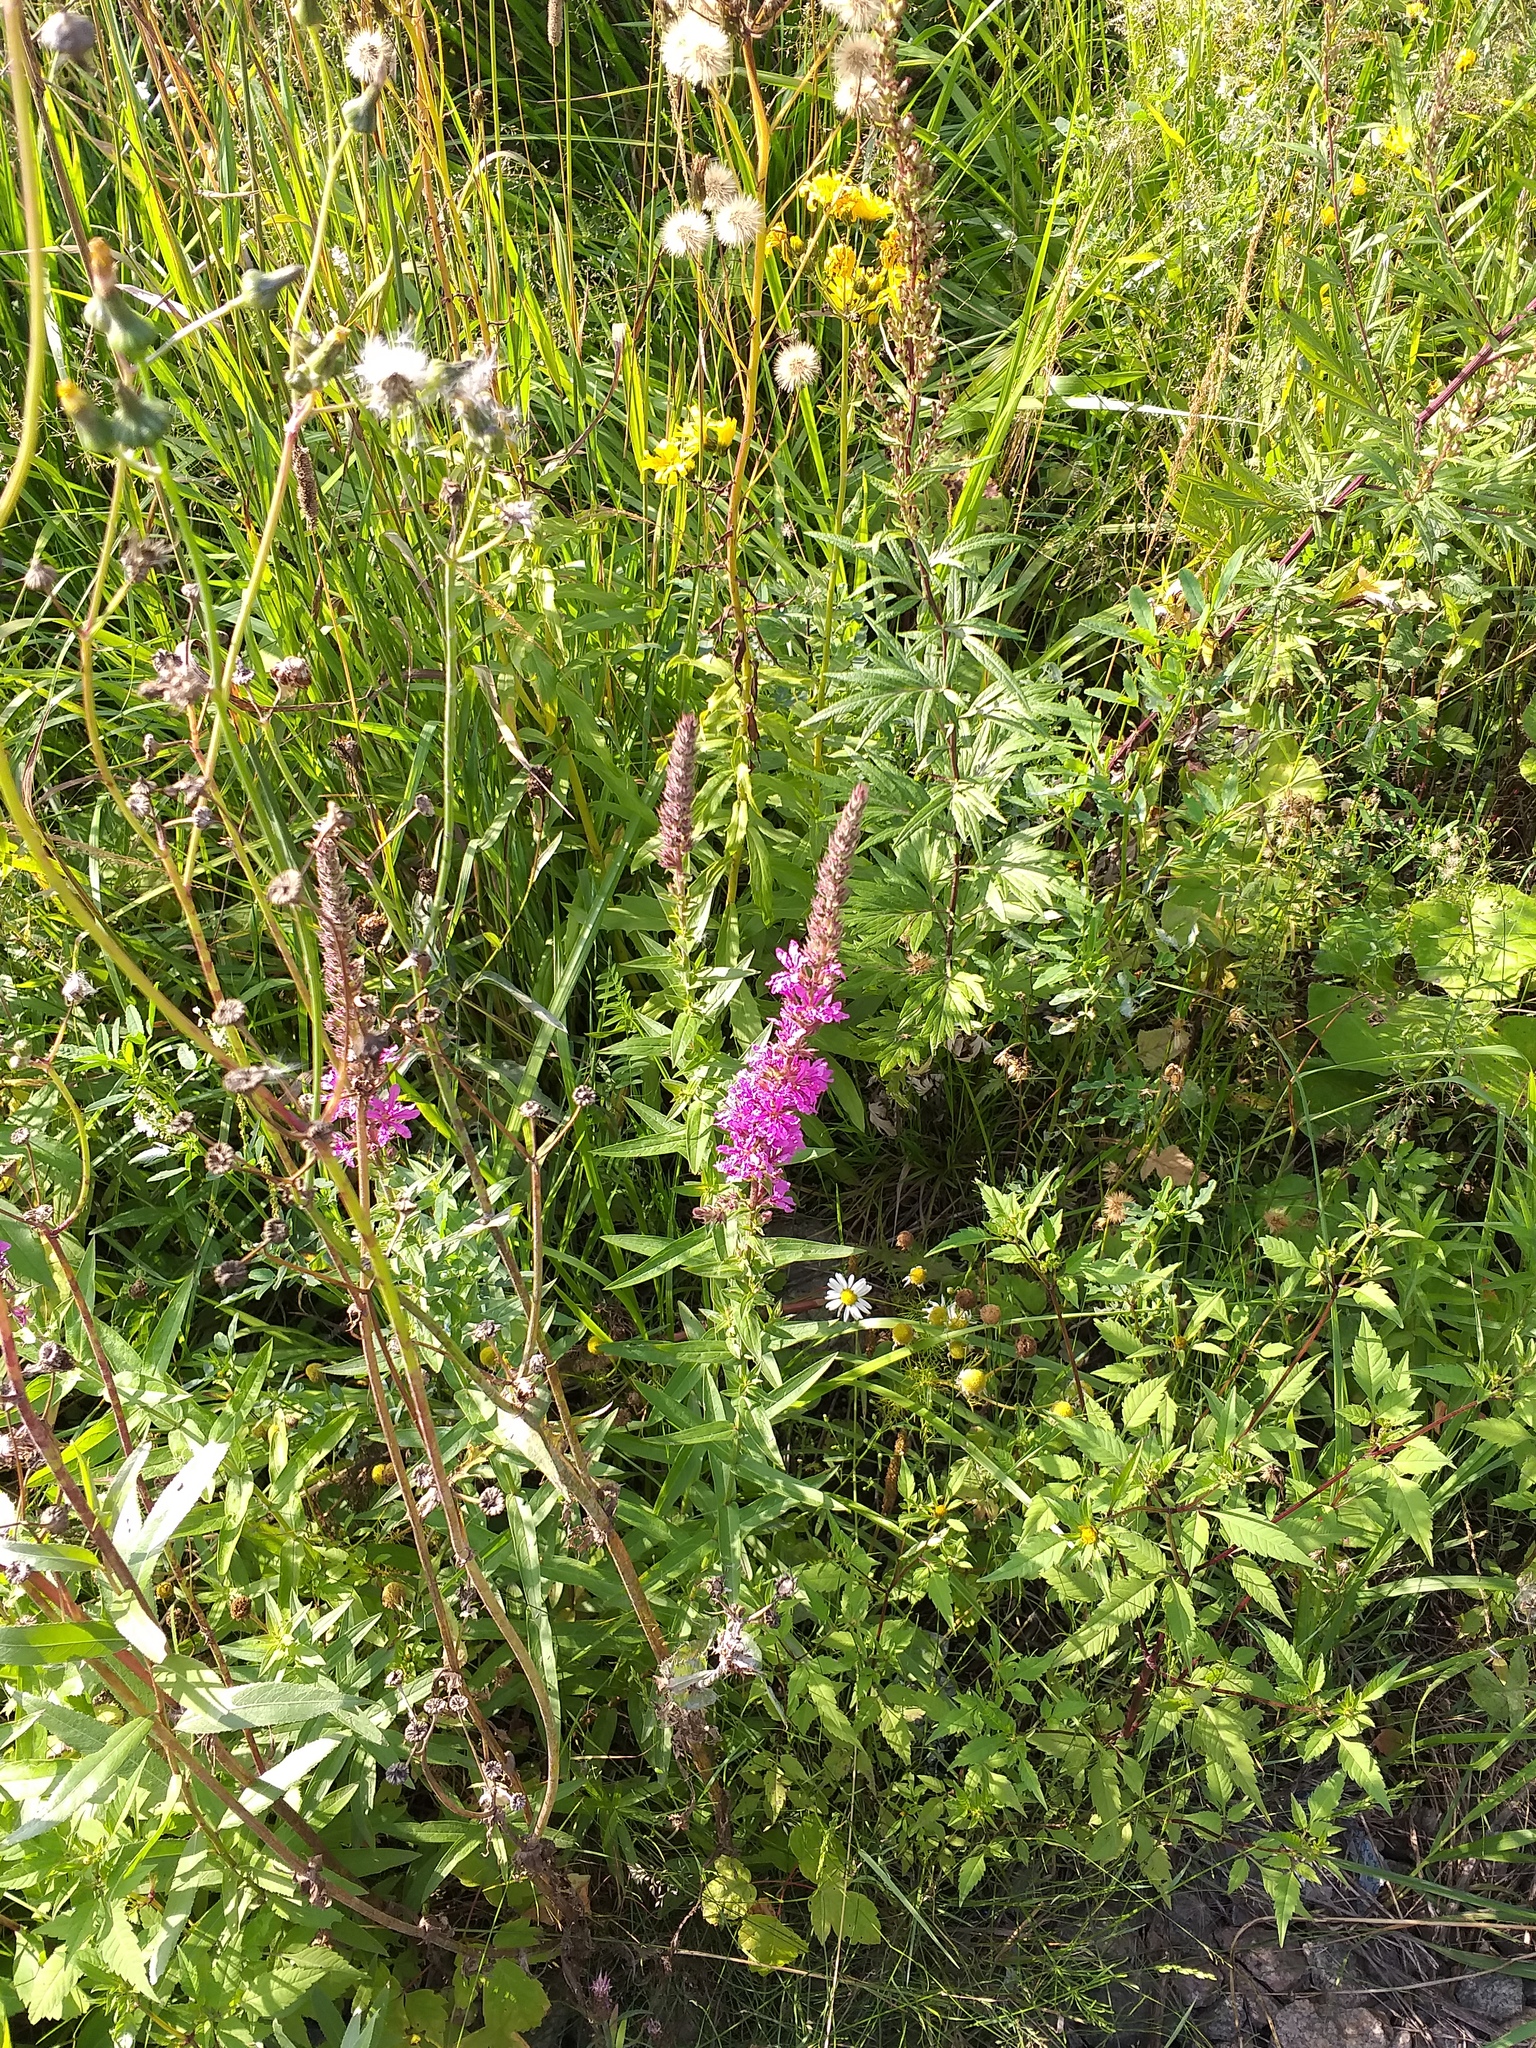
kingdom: Plantae
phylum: Tracheophyta
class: Magnoliopsida
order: Myrtales
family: Lythraceae
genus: Lythrum
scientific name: Lythrum salicaria
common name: Purple loosestrife
